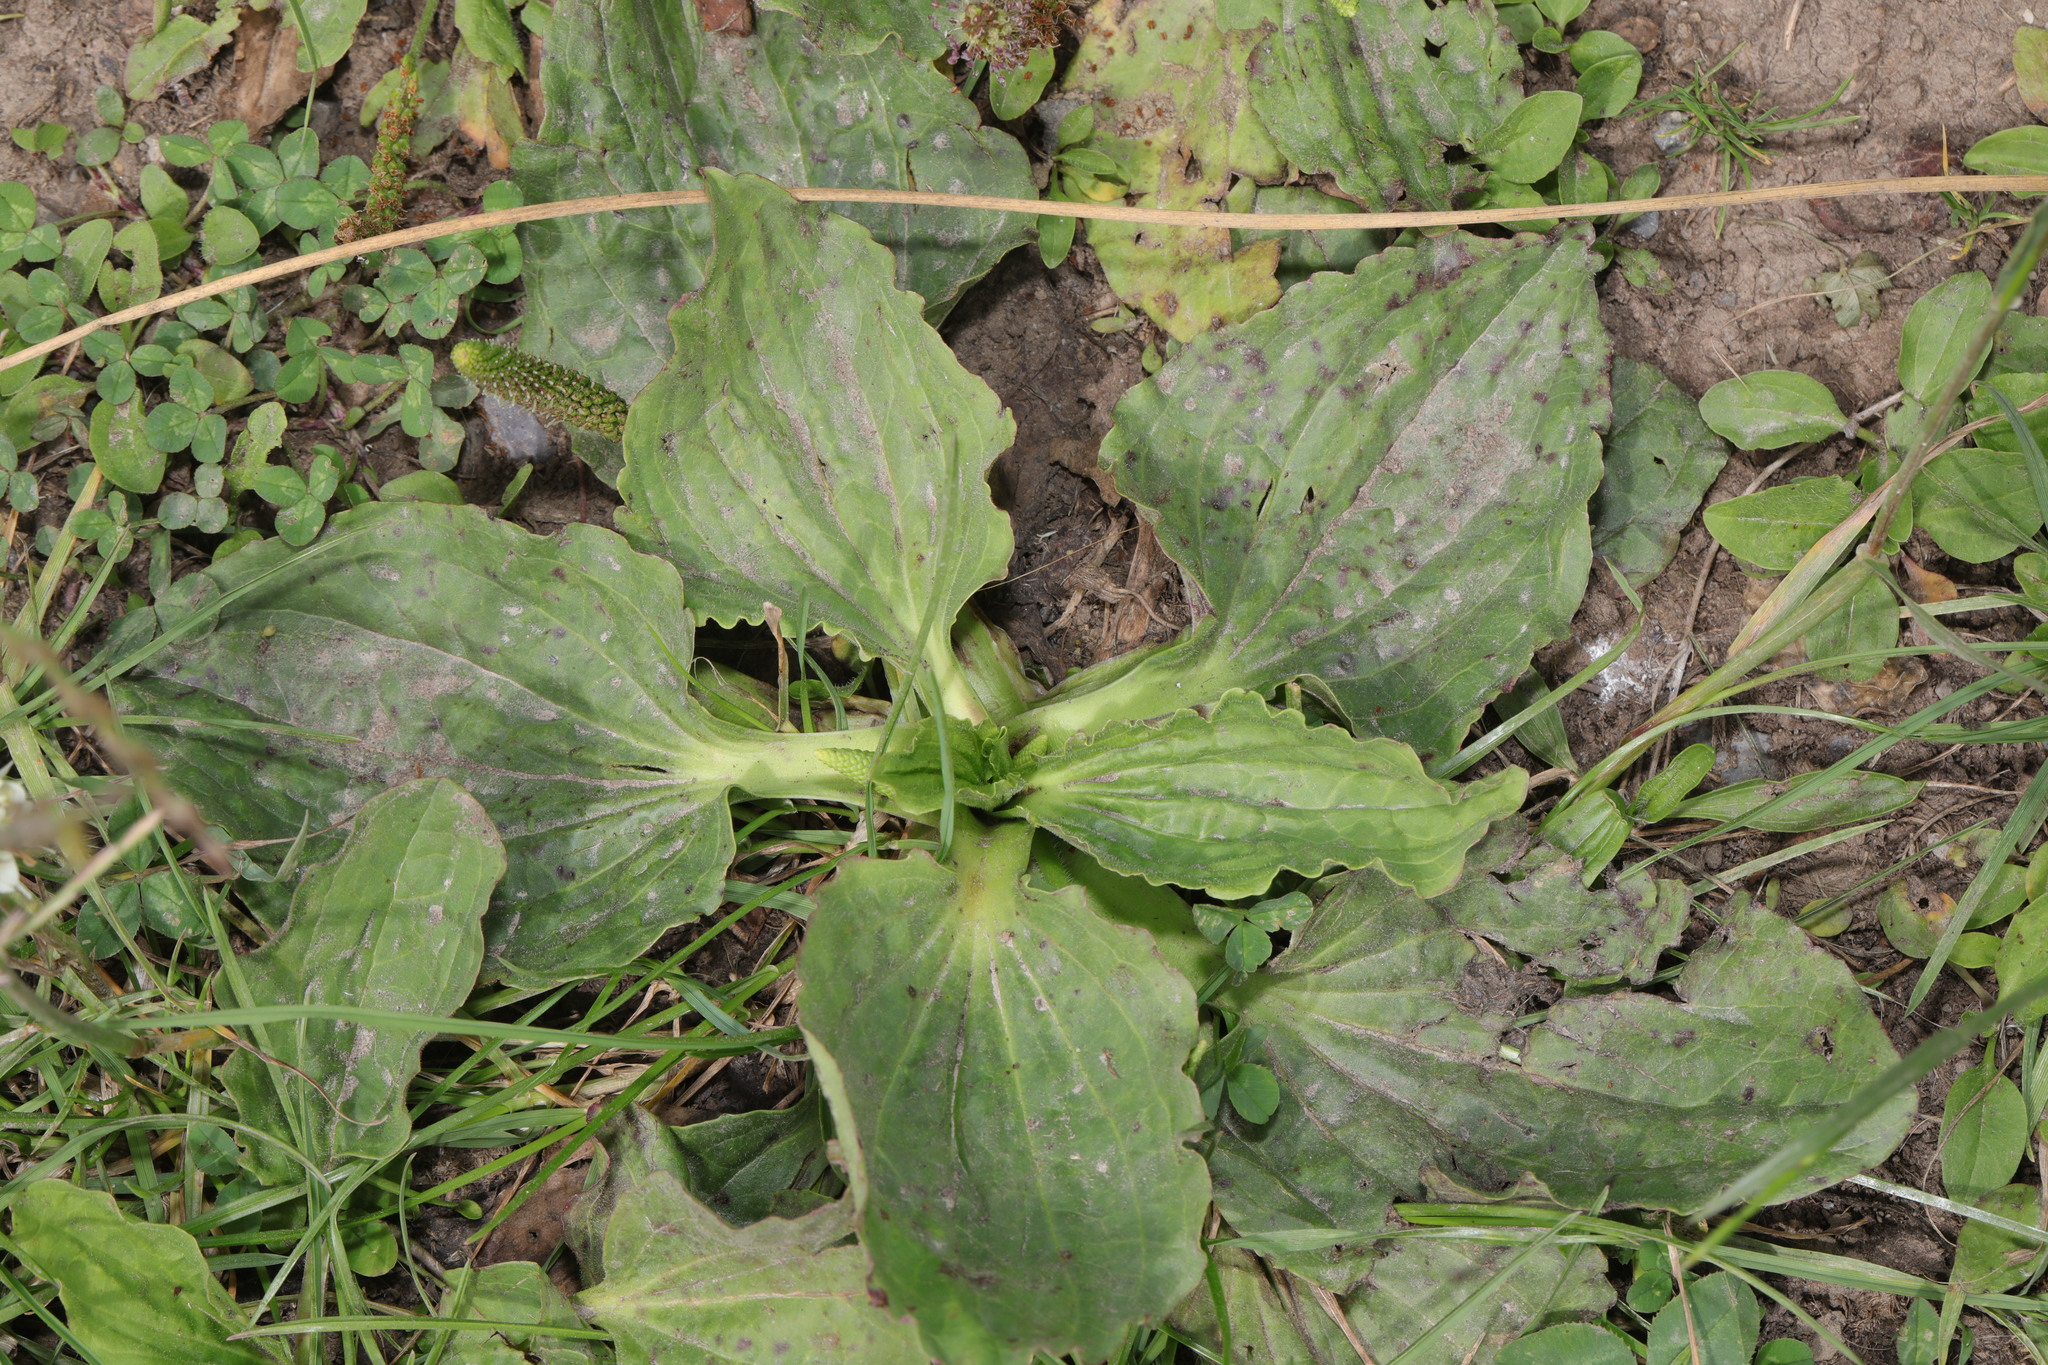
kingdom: Plantae
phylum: Tracheophyta
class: Magnoliopsida
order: Lamiales
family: Plantaginaceae
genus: Plantago
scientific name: Plantago major
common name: Common plantain
